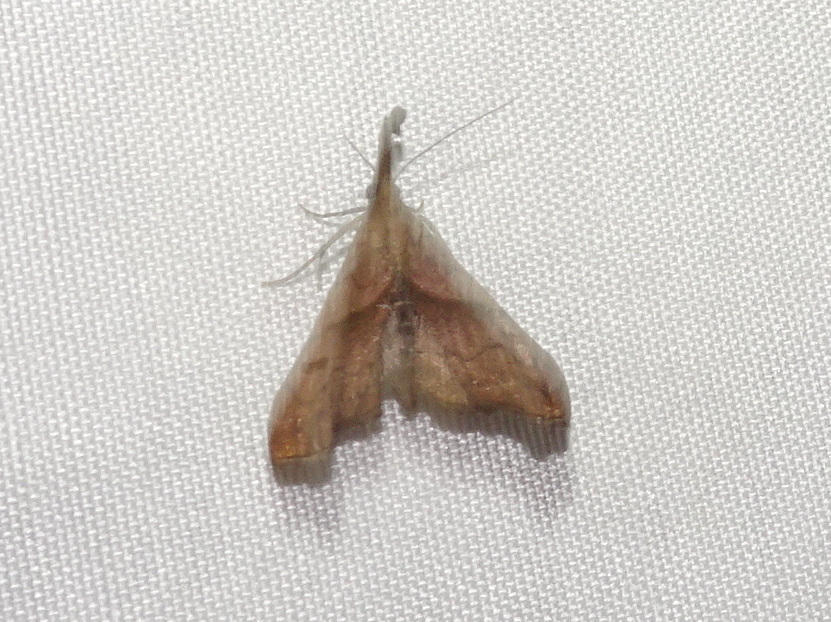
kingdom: Animalia
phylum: Arthropoda
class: Insecta
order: Lepidoptera
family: Erebidae
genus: Palthis
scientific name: Palthis angulalis
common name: Dark-spotted palthis moth
